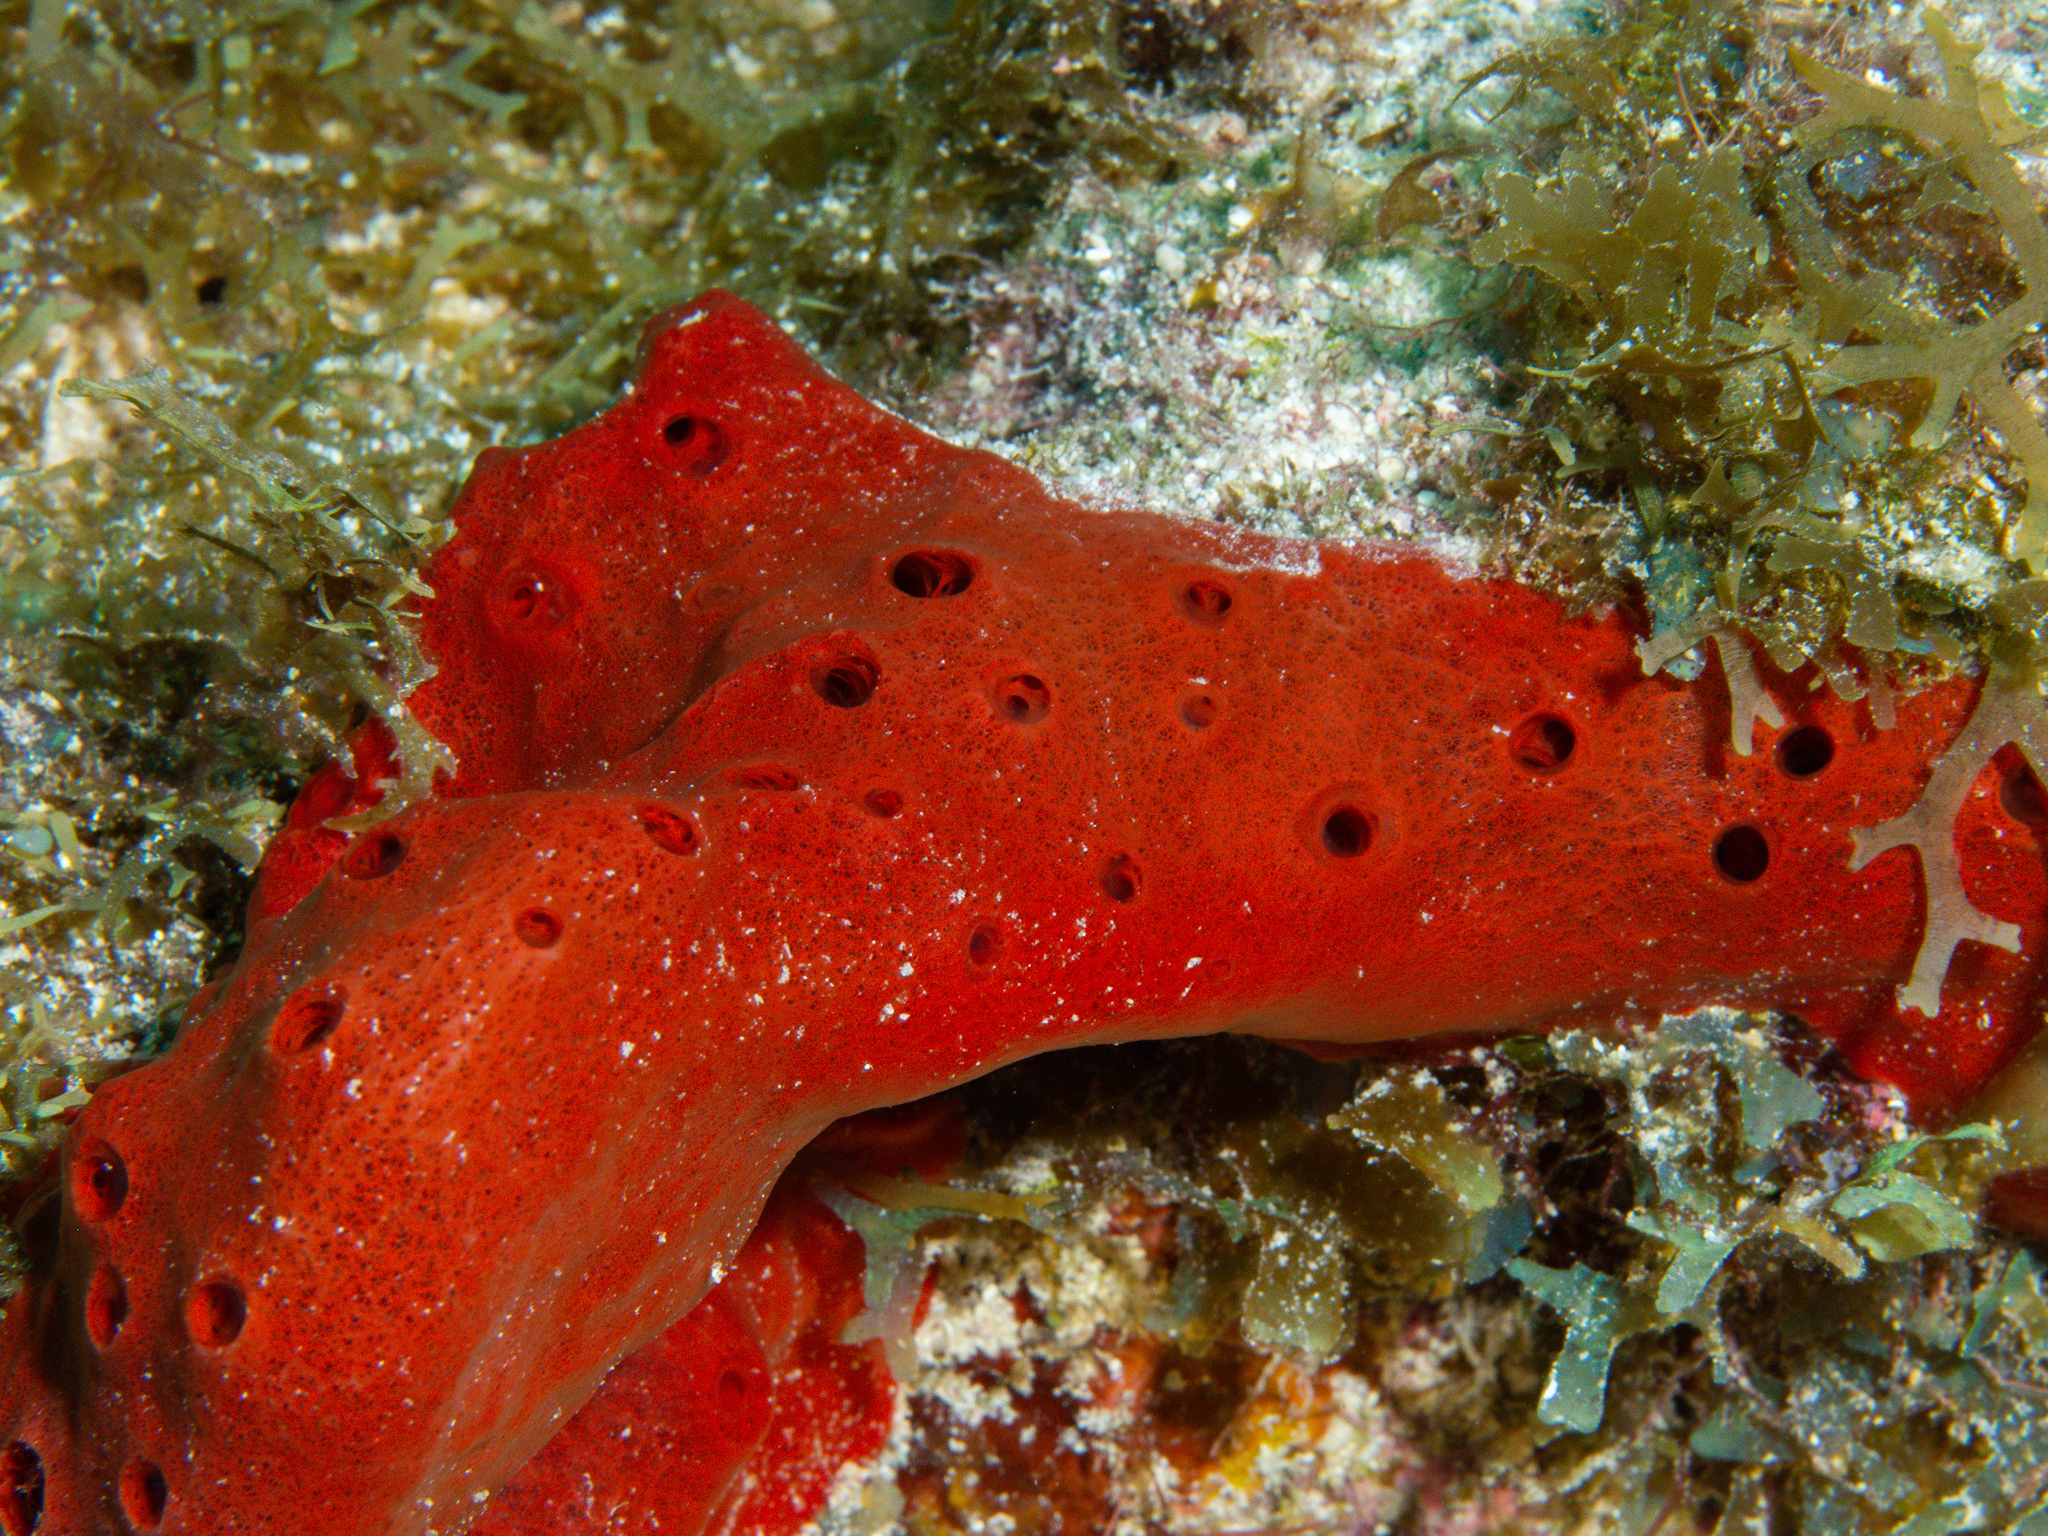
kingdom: Animalia
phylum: Porifera
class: Demospongiae
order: Haplosclerida
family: Niphatidae
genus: Amphimedon
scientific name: Amphimedon compressa
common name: Red sponge
